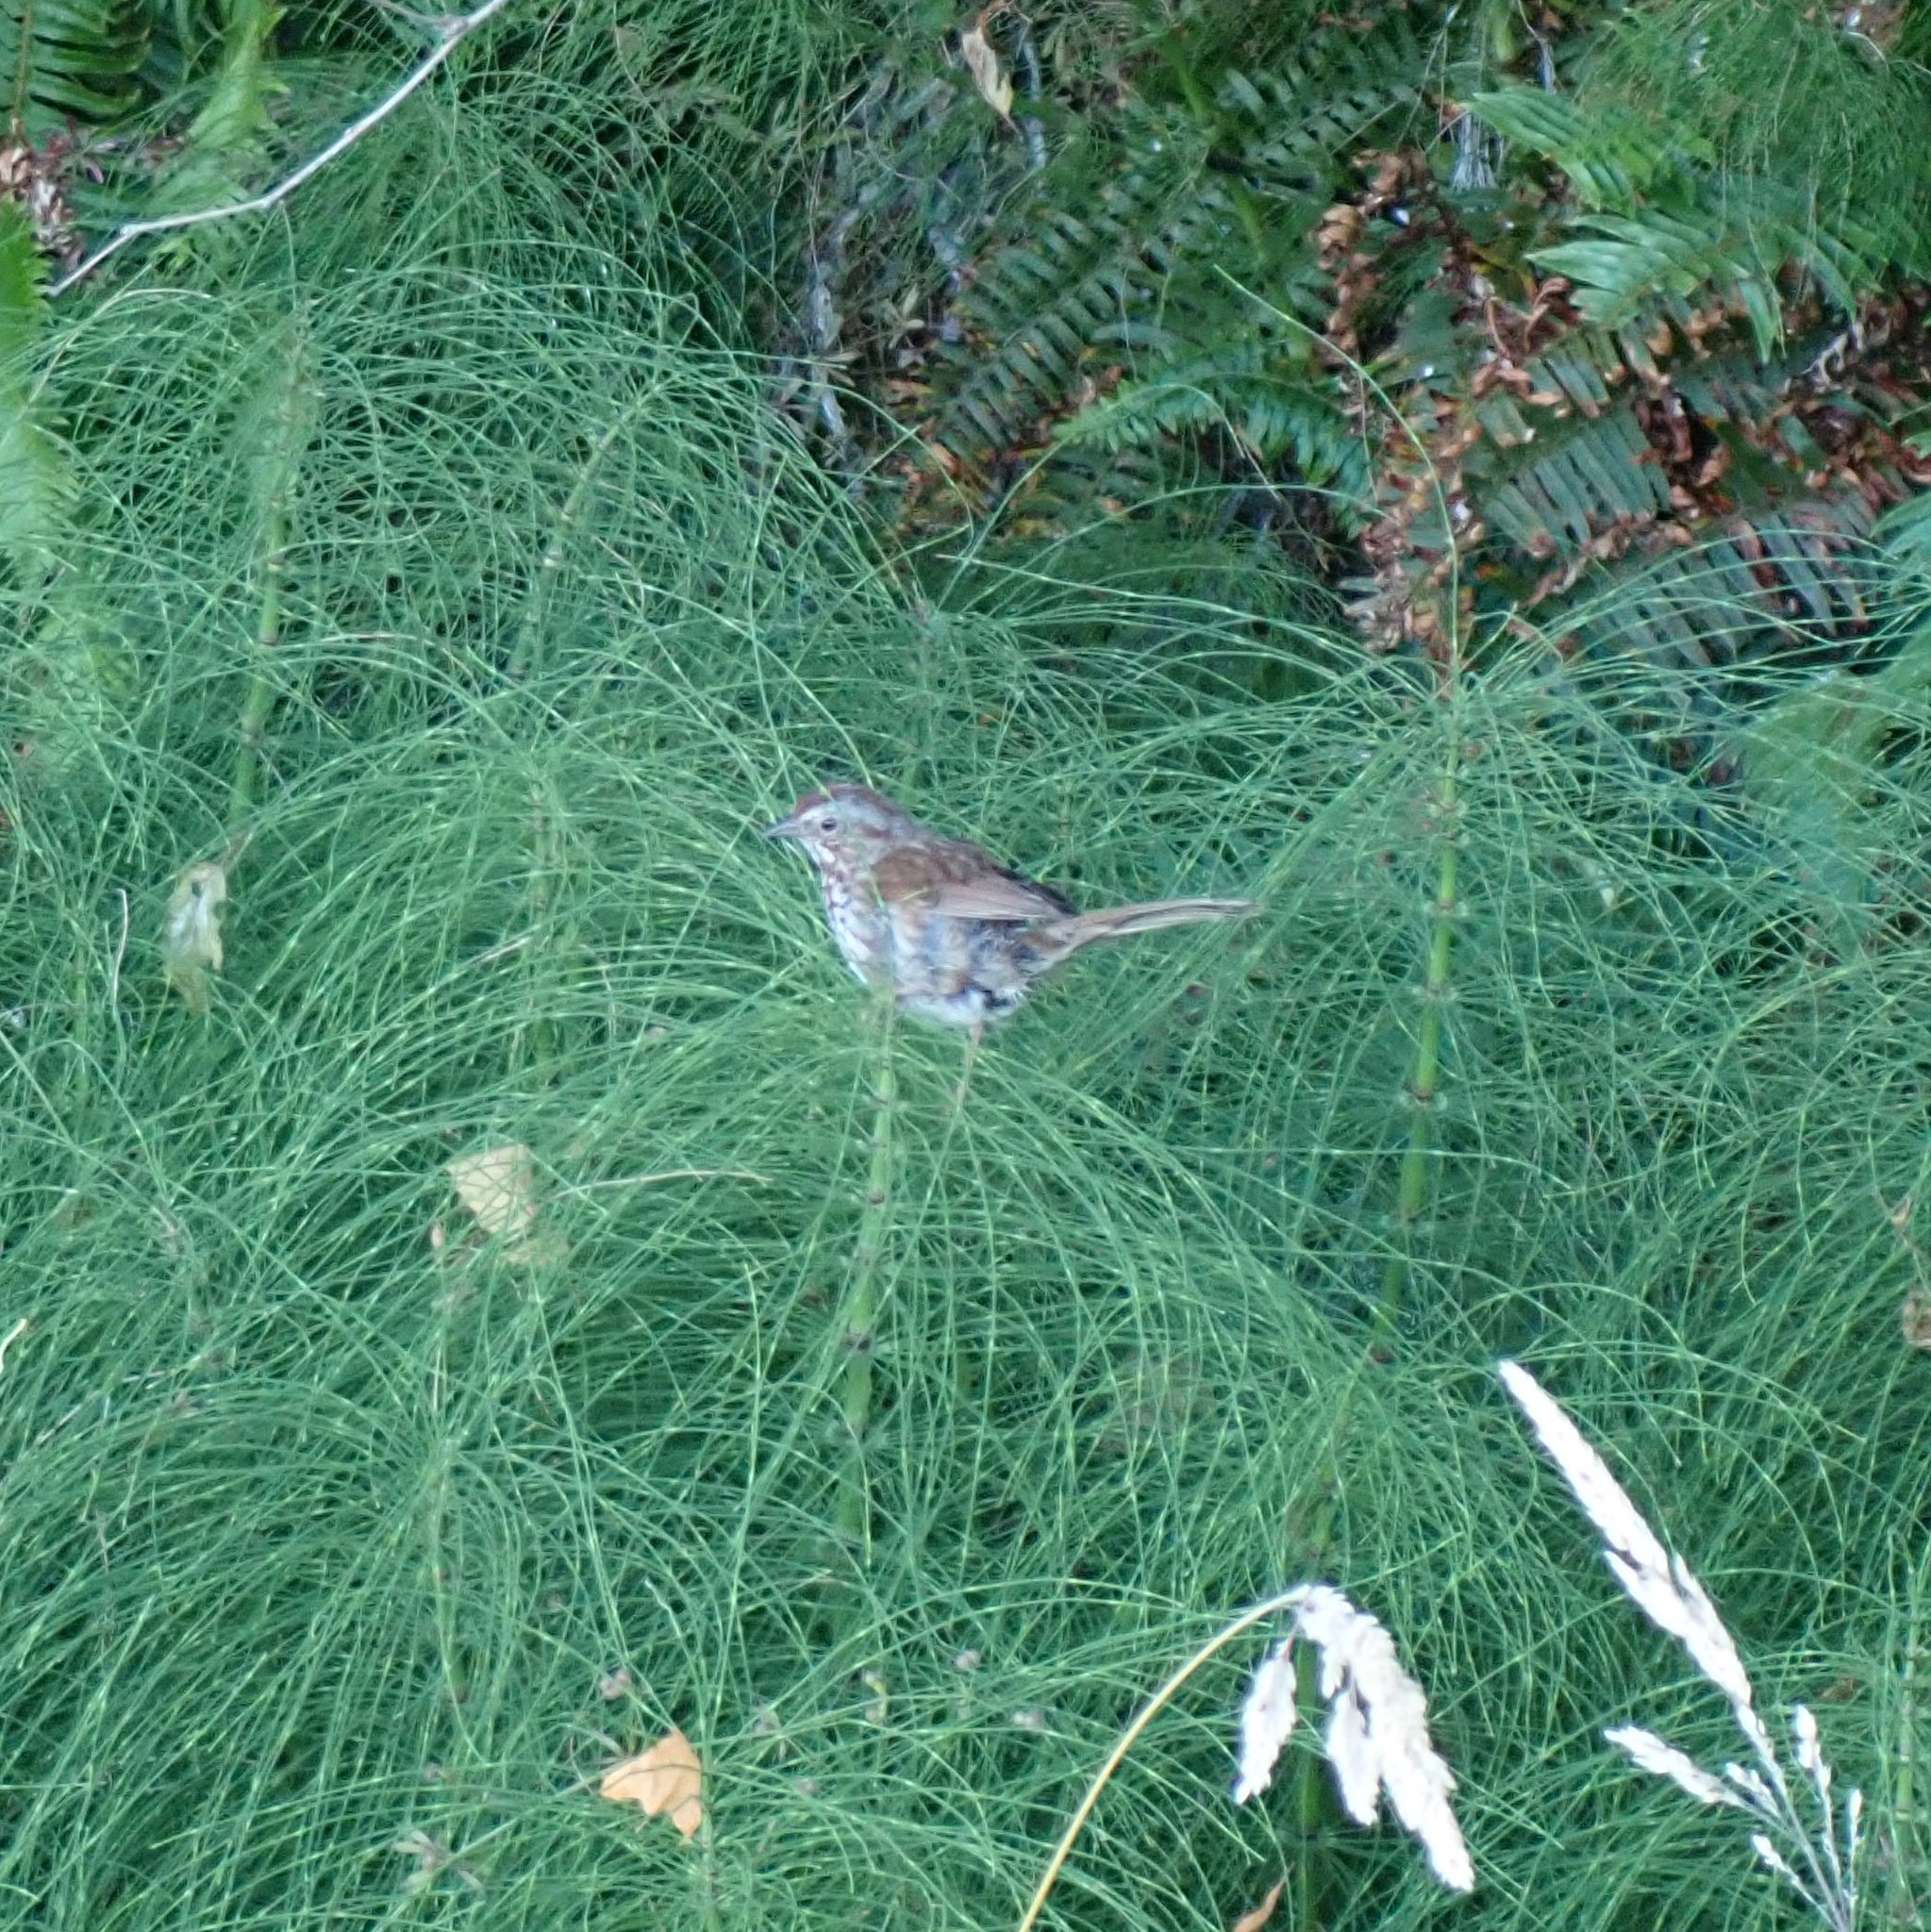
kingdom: Animalia
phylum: Chordata
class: Aves
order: Passeriformes
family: Passerellidae
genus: Melospiza
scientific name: Melospiza melodia
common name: Song sparrow
